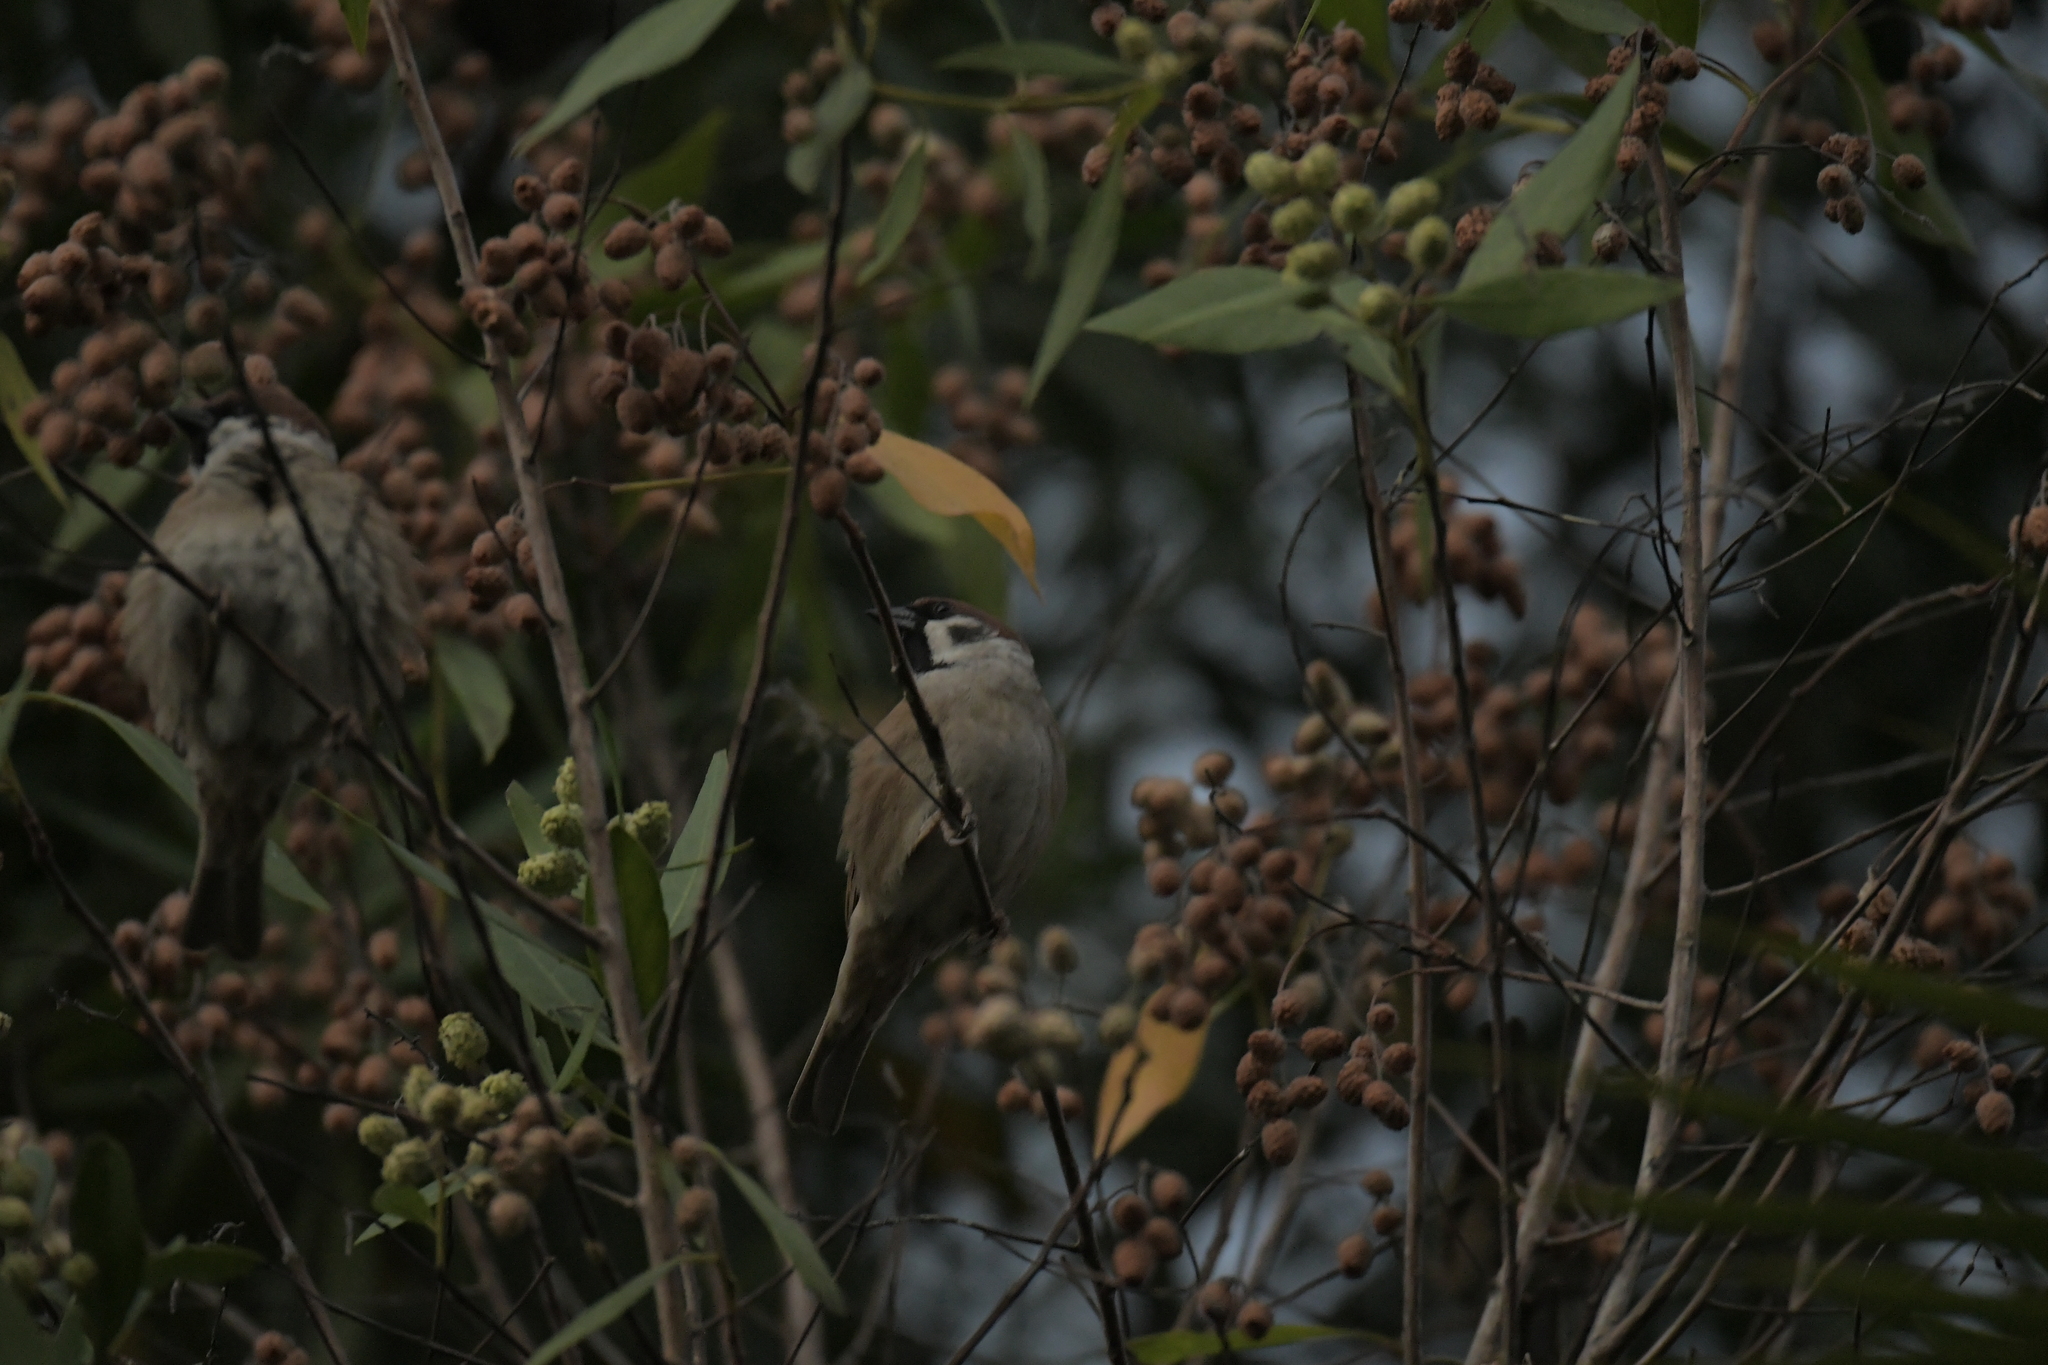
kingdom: Animalia
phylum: Chordata
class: Aves
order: Passeriformes
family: Passeridae
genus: Passer
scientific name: Passer montanus
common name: Eurasian tree sparrow
